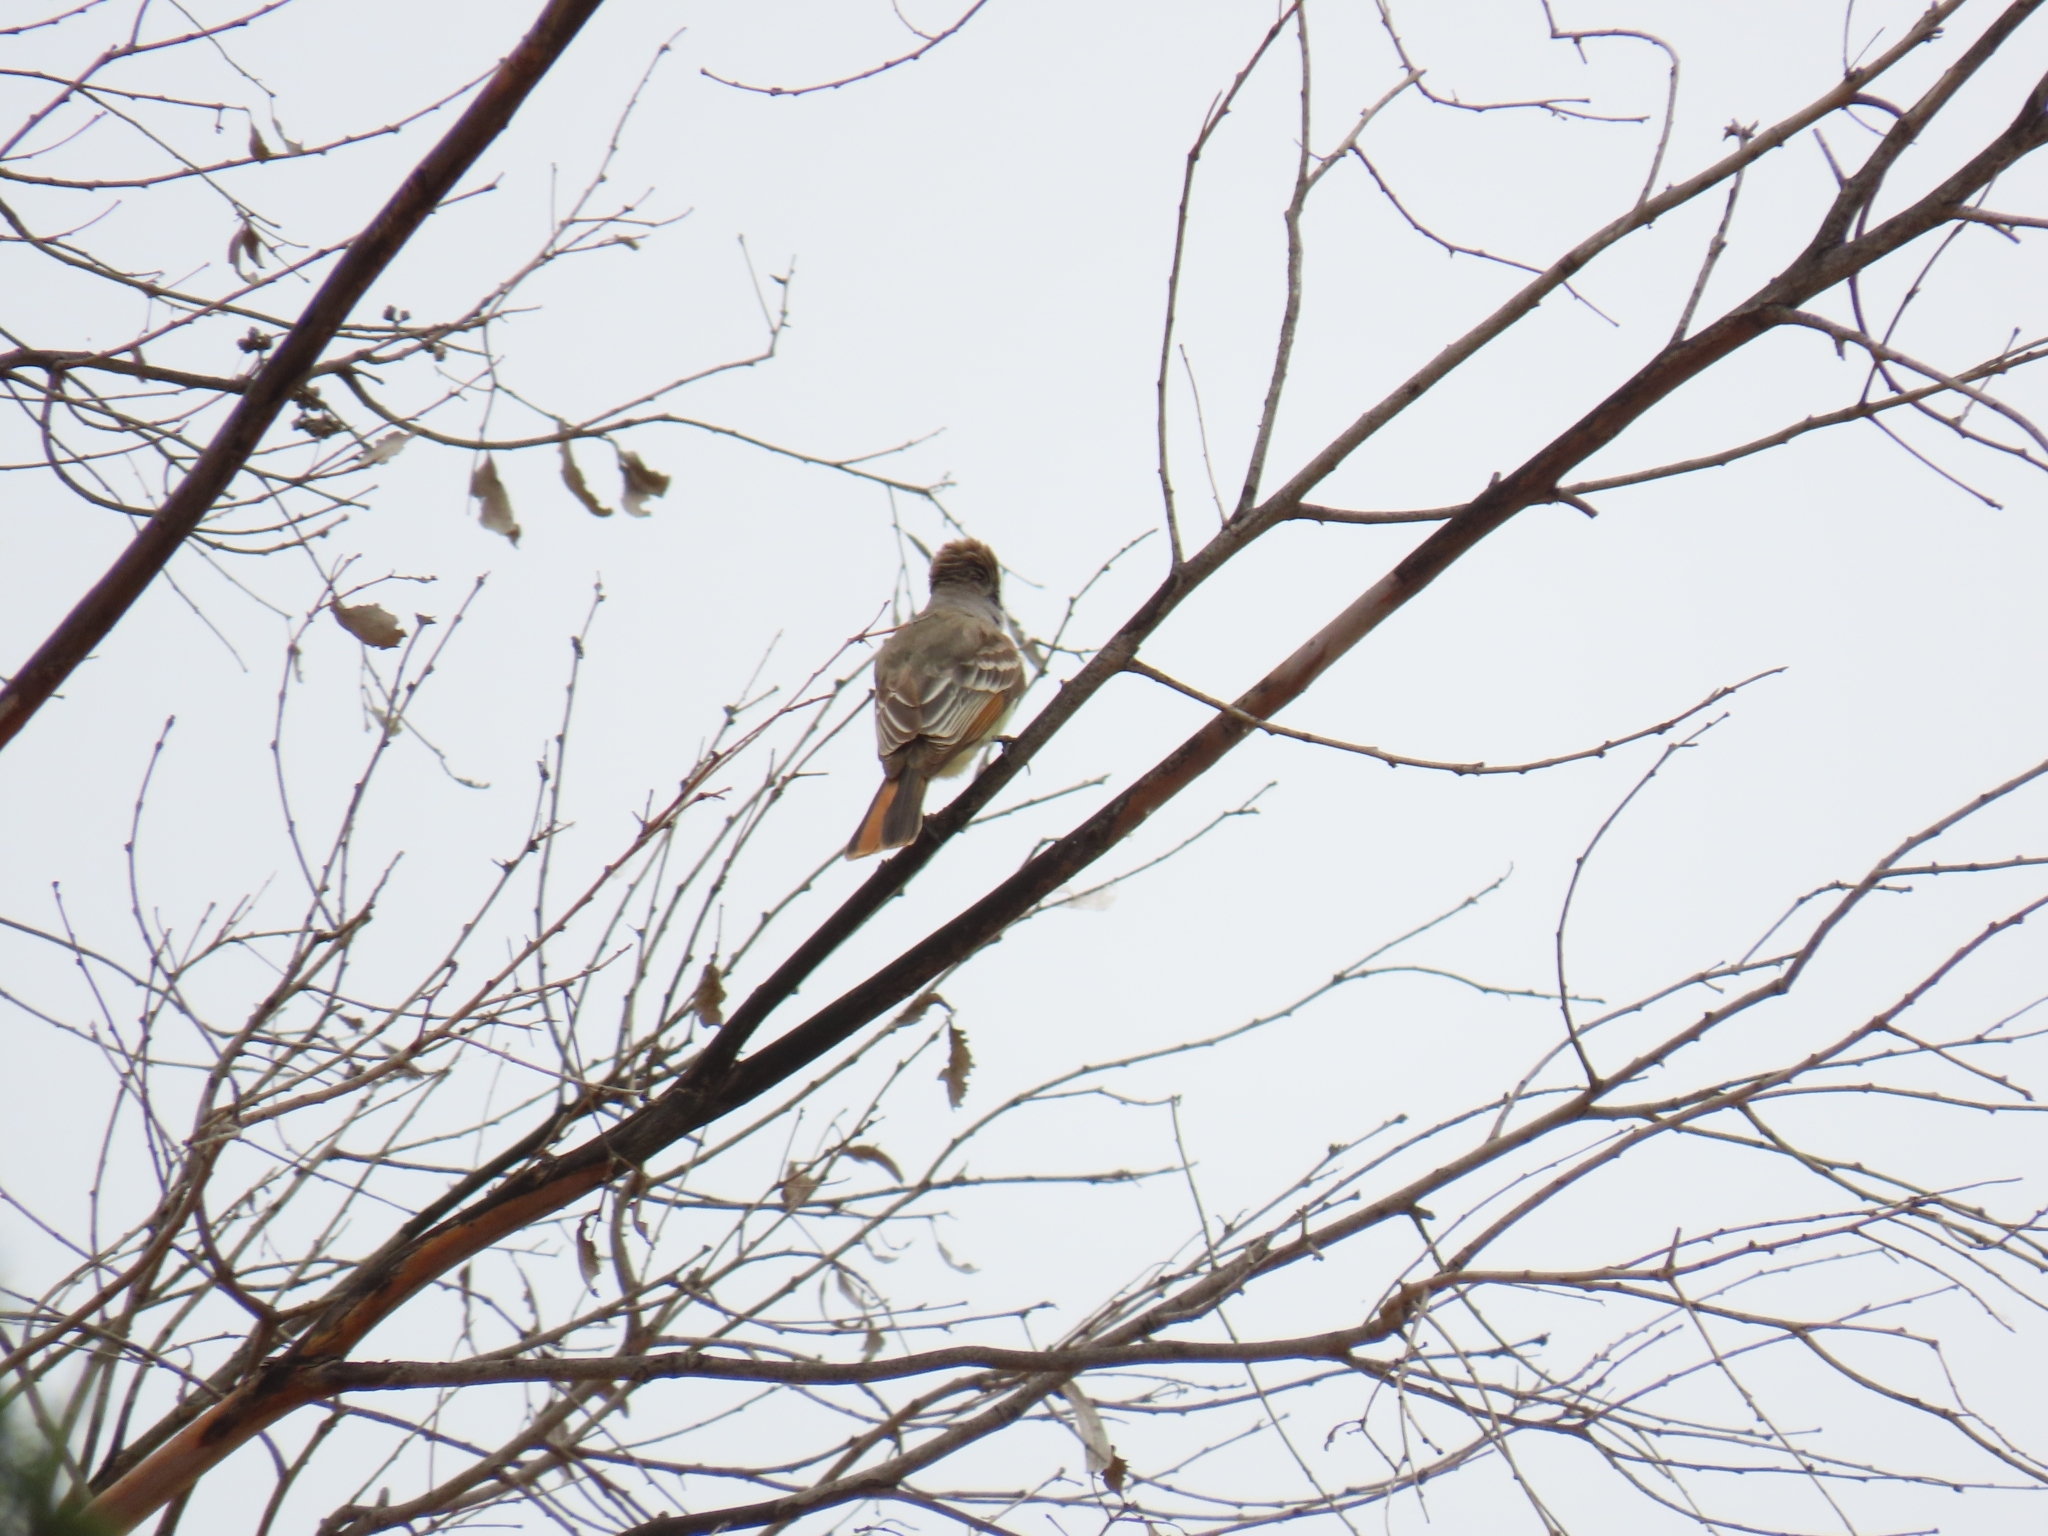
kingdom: Animalia
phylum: Chordata
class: Aves
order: Passeriformes
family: Tyrannidae
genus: Myiarchus
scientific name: Myiarchus cinerascens
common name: Ash-throated flycatcher
